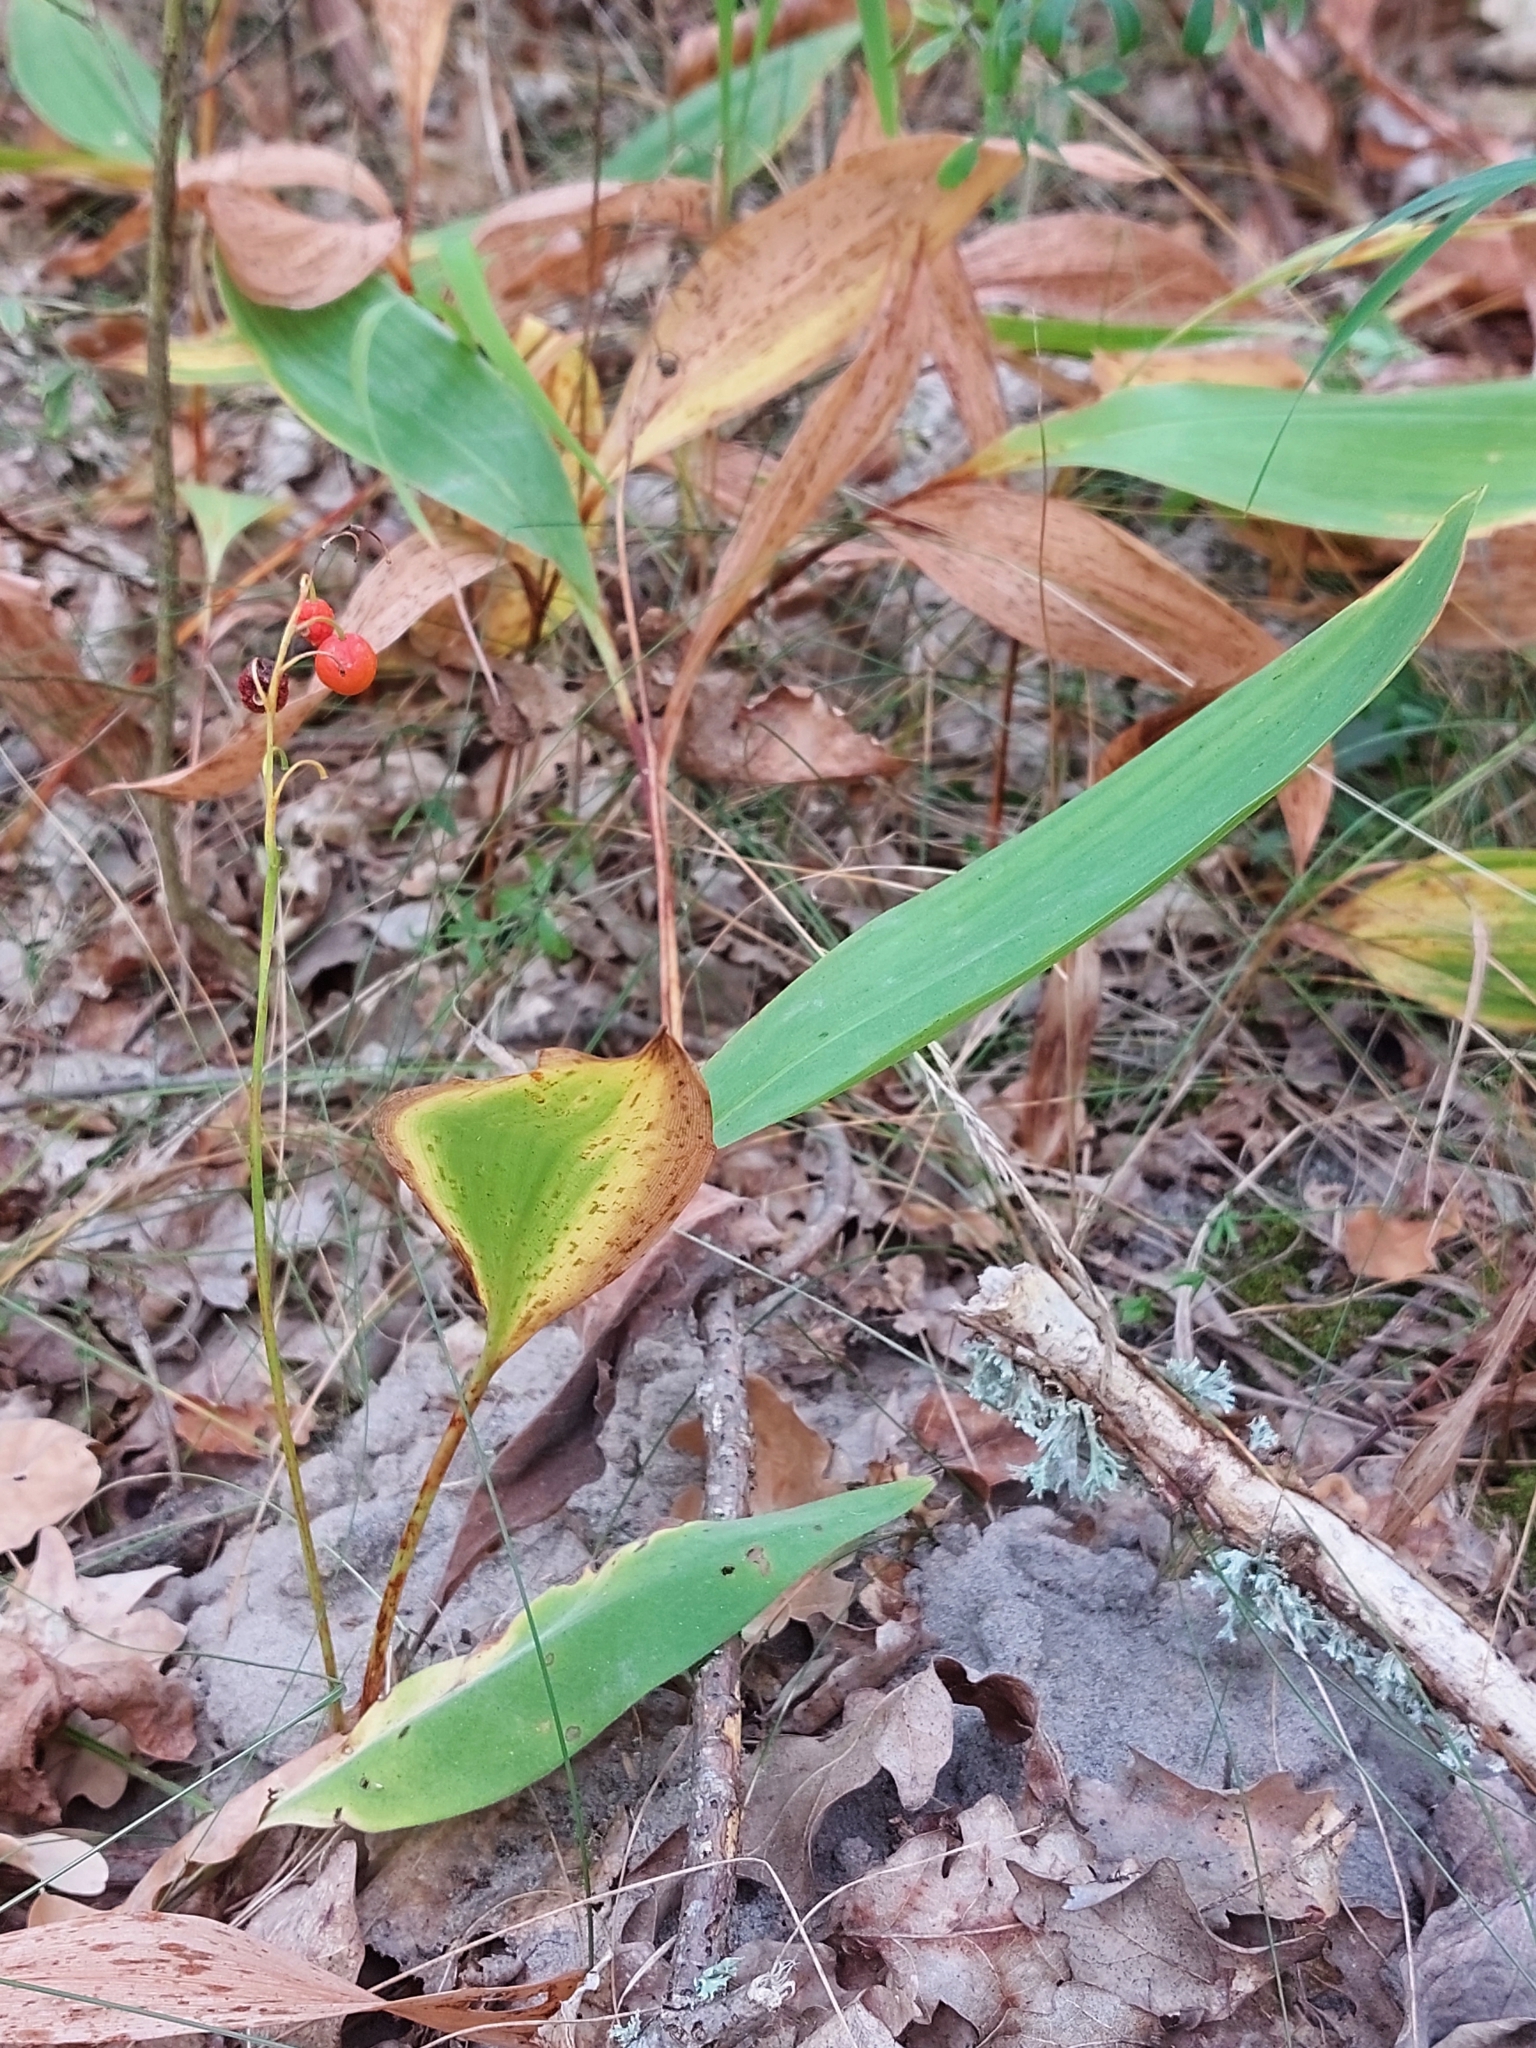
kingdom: Plantae
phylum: Tracheophyta
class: Liliopsida
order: Asparagales
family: Asparagaceae
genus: Convallaria
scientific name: Convallaria majalis
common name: Lily-of-the-valley
